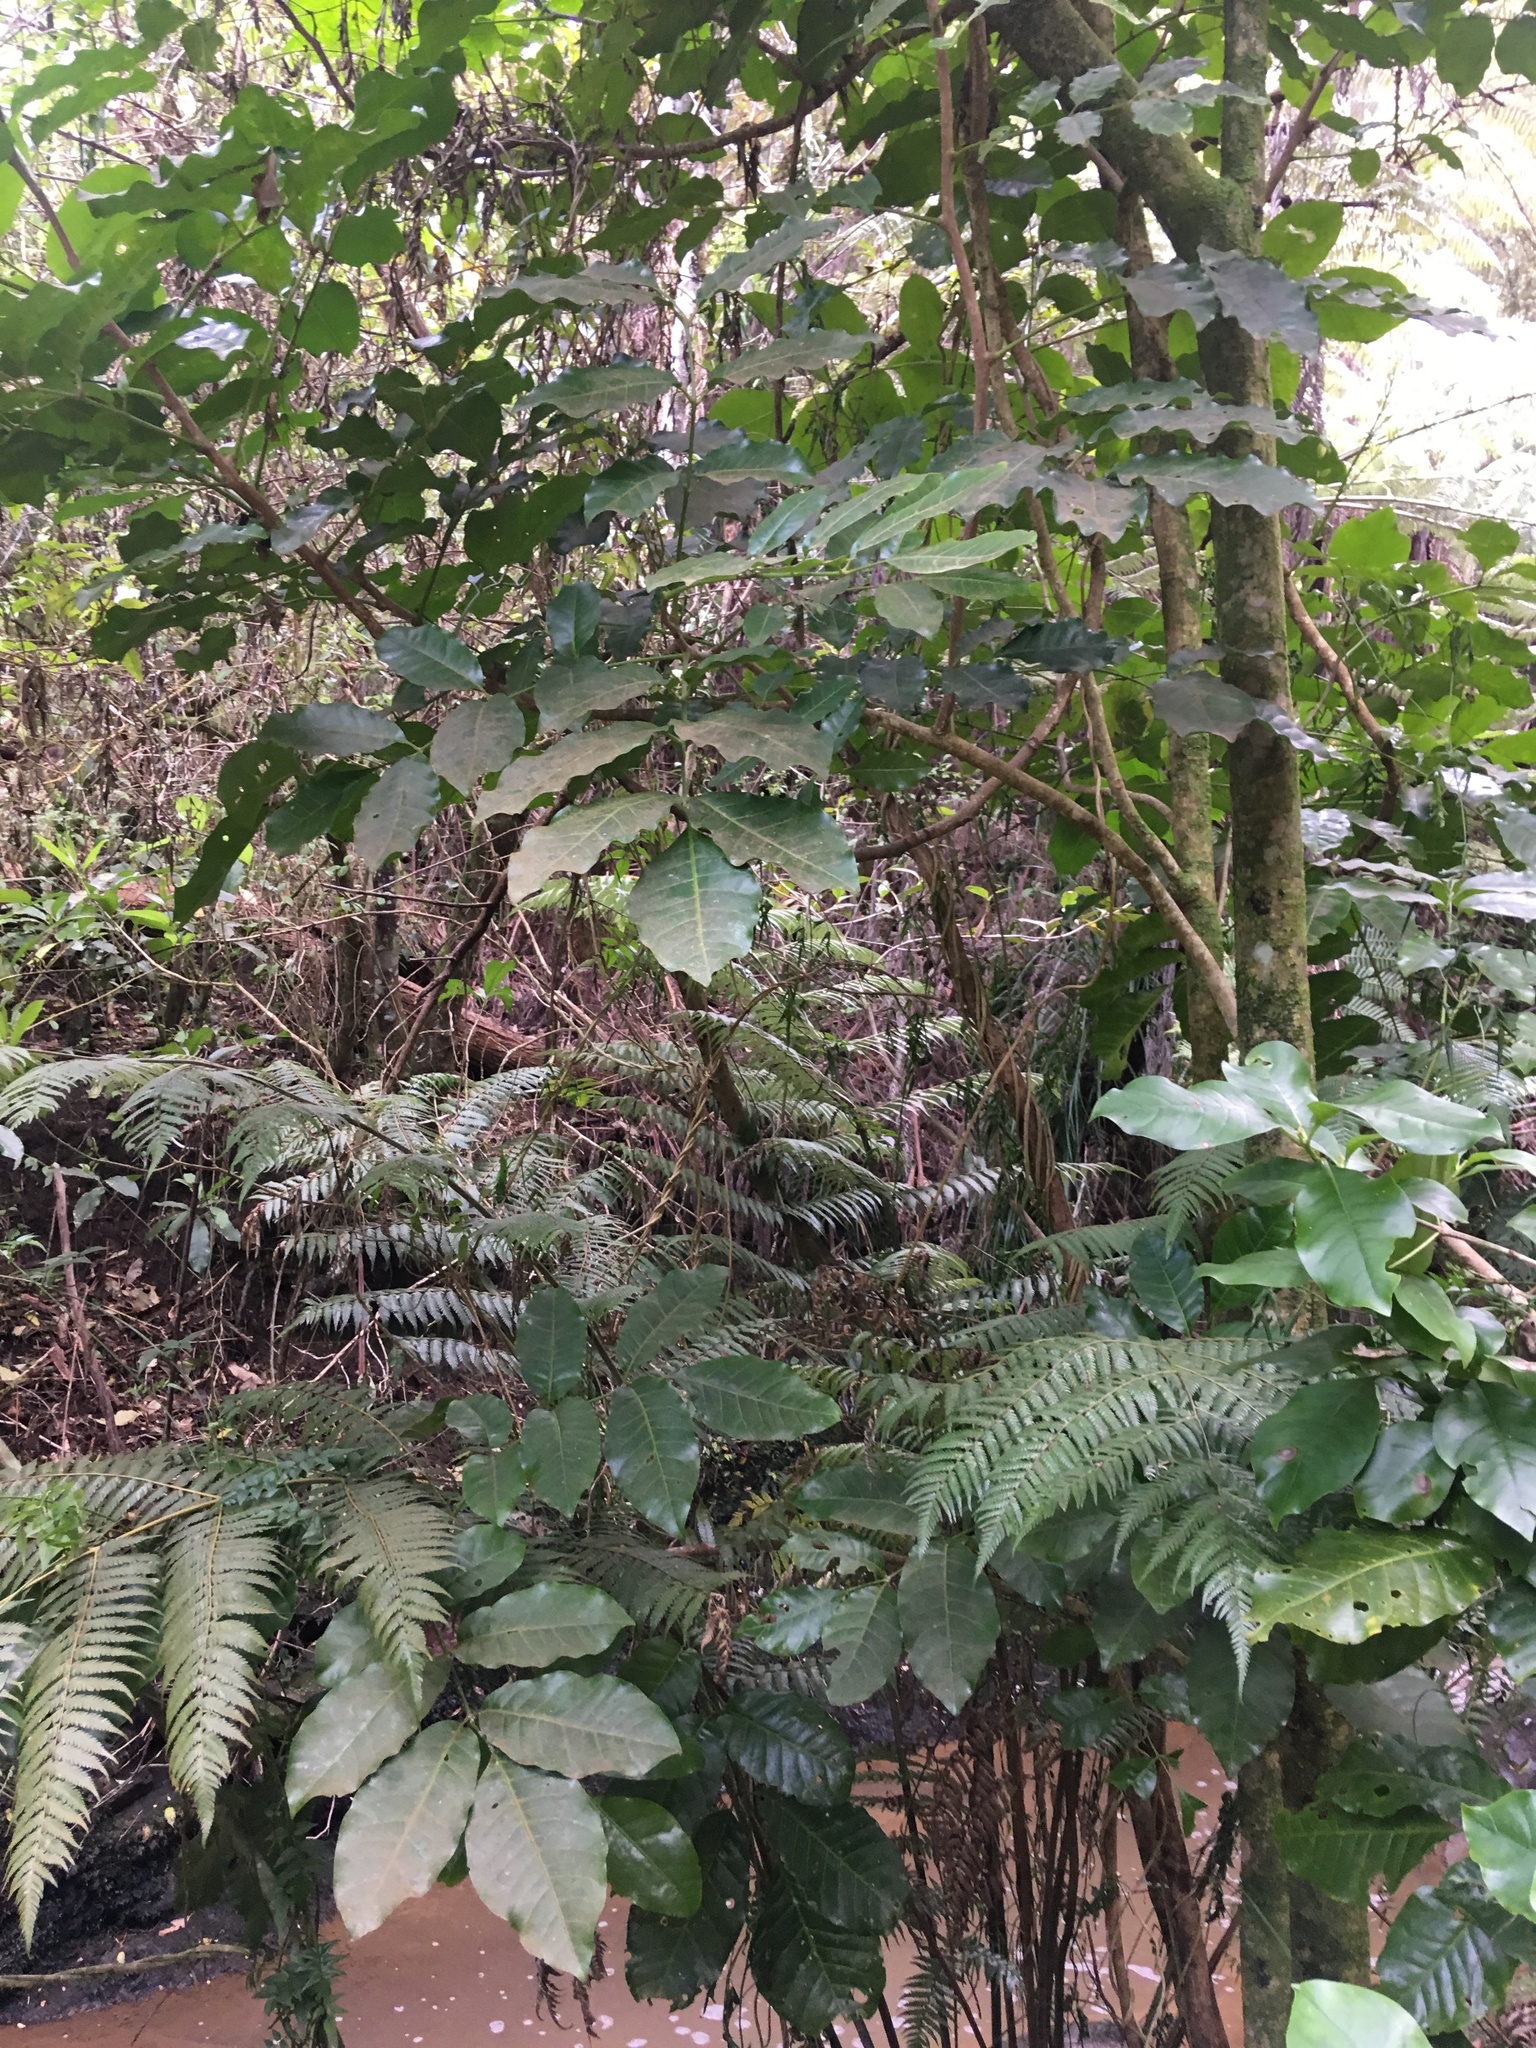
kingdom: Plantae
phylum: Tracheophyta
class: Magnoliopsida
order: Sapindales
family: Meliaceae
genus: Didymocheton
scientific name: Didymocheton spectabilis
